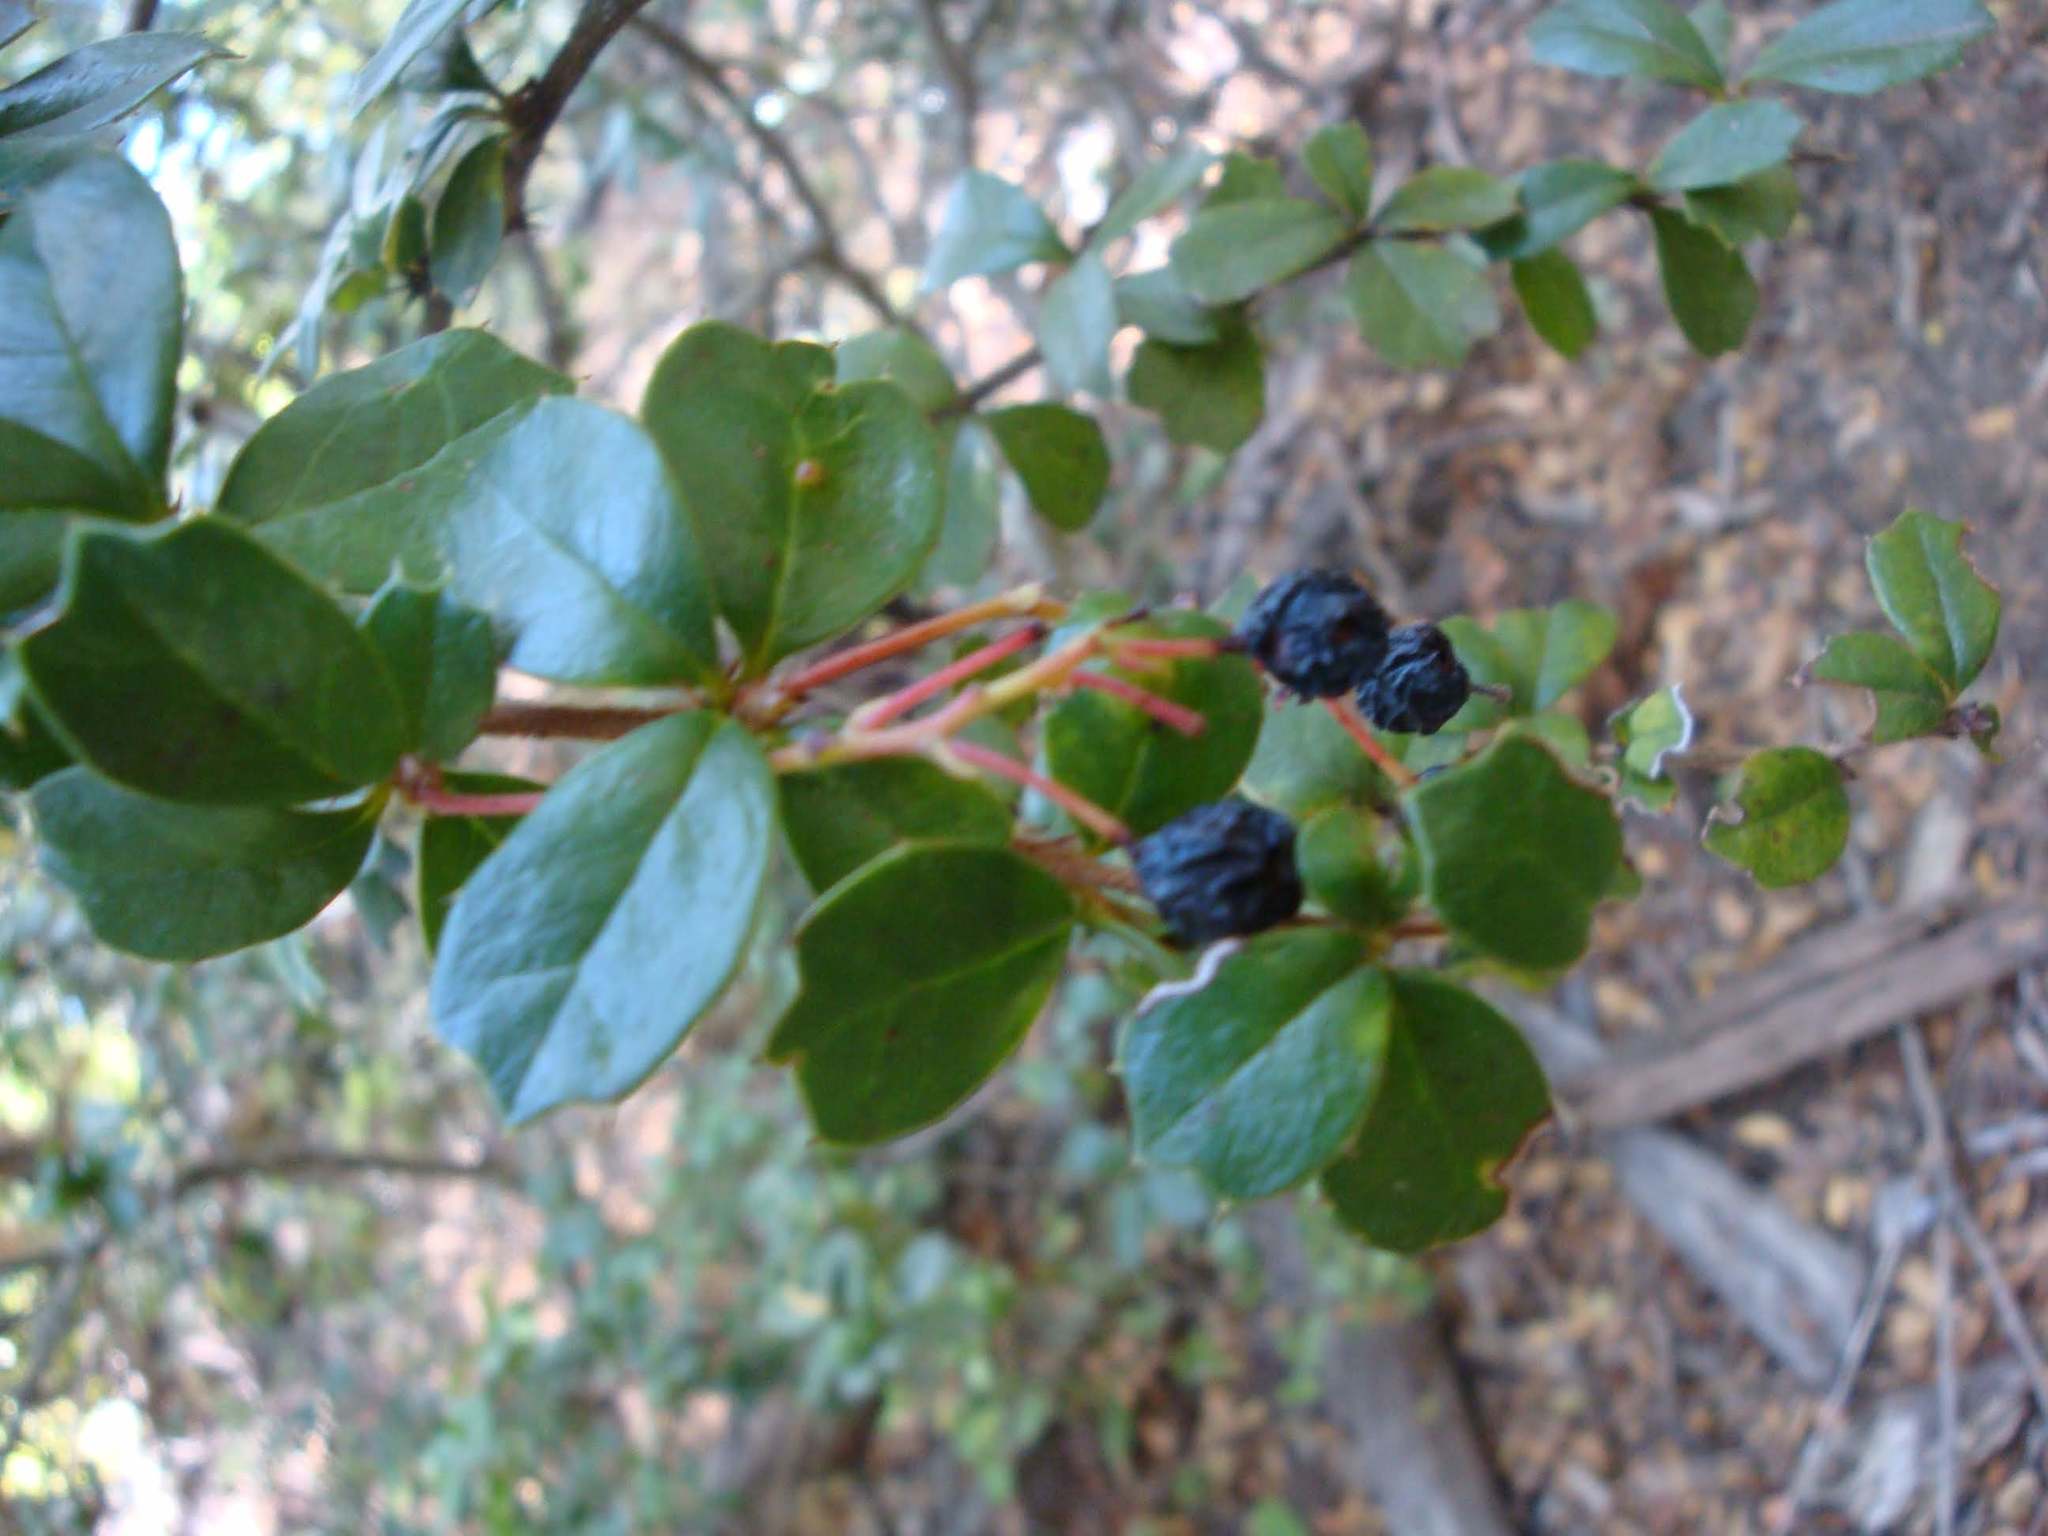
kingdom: Plantae
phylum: Tracheophyta
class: Magnoliopsida
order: Ranunculales
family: Berberidaceae
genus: Berberis
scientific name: Berberis darwinii
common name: Darwin's barberry
